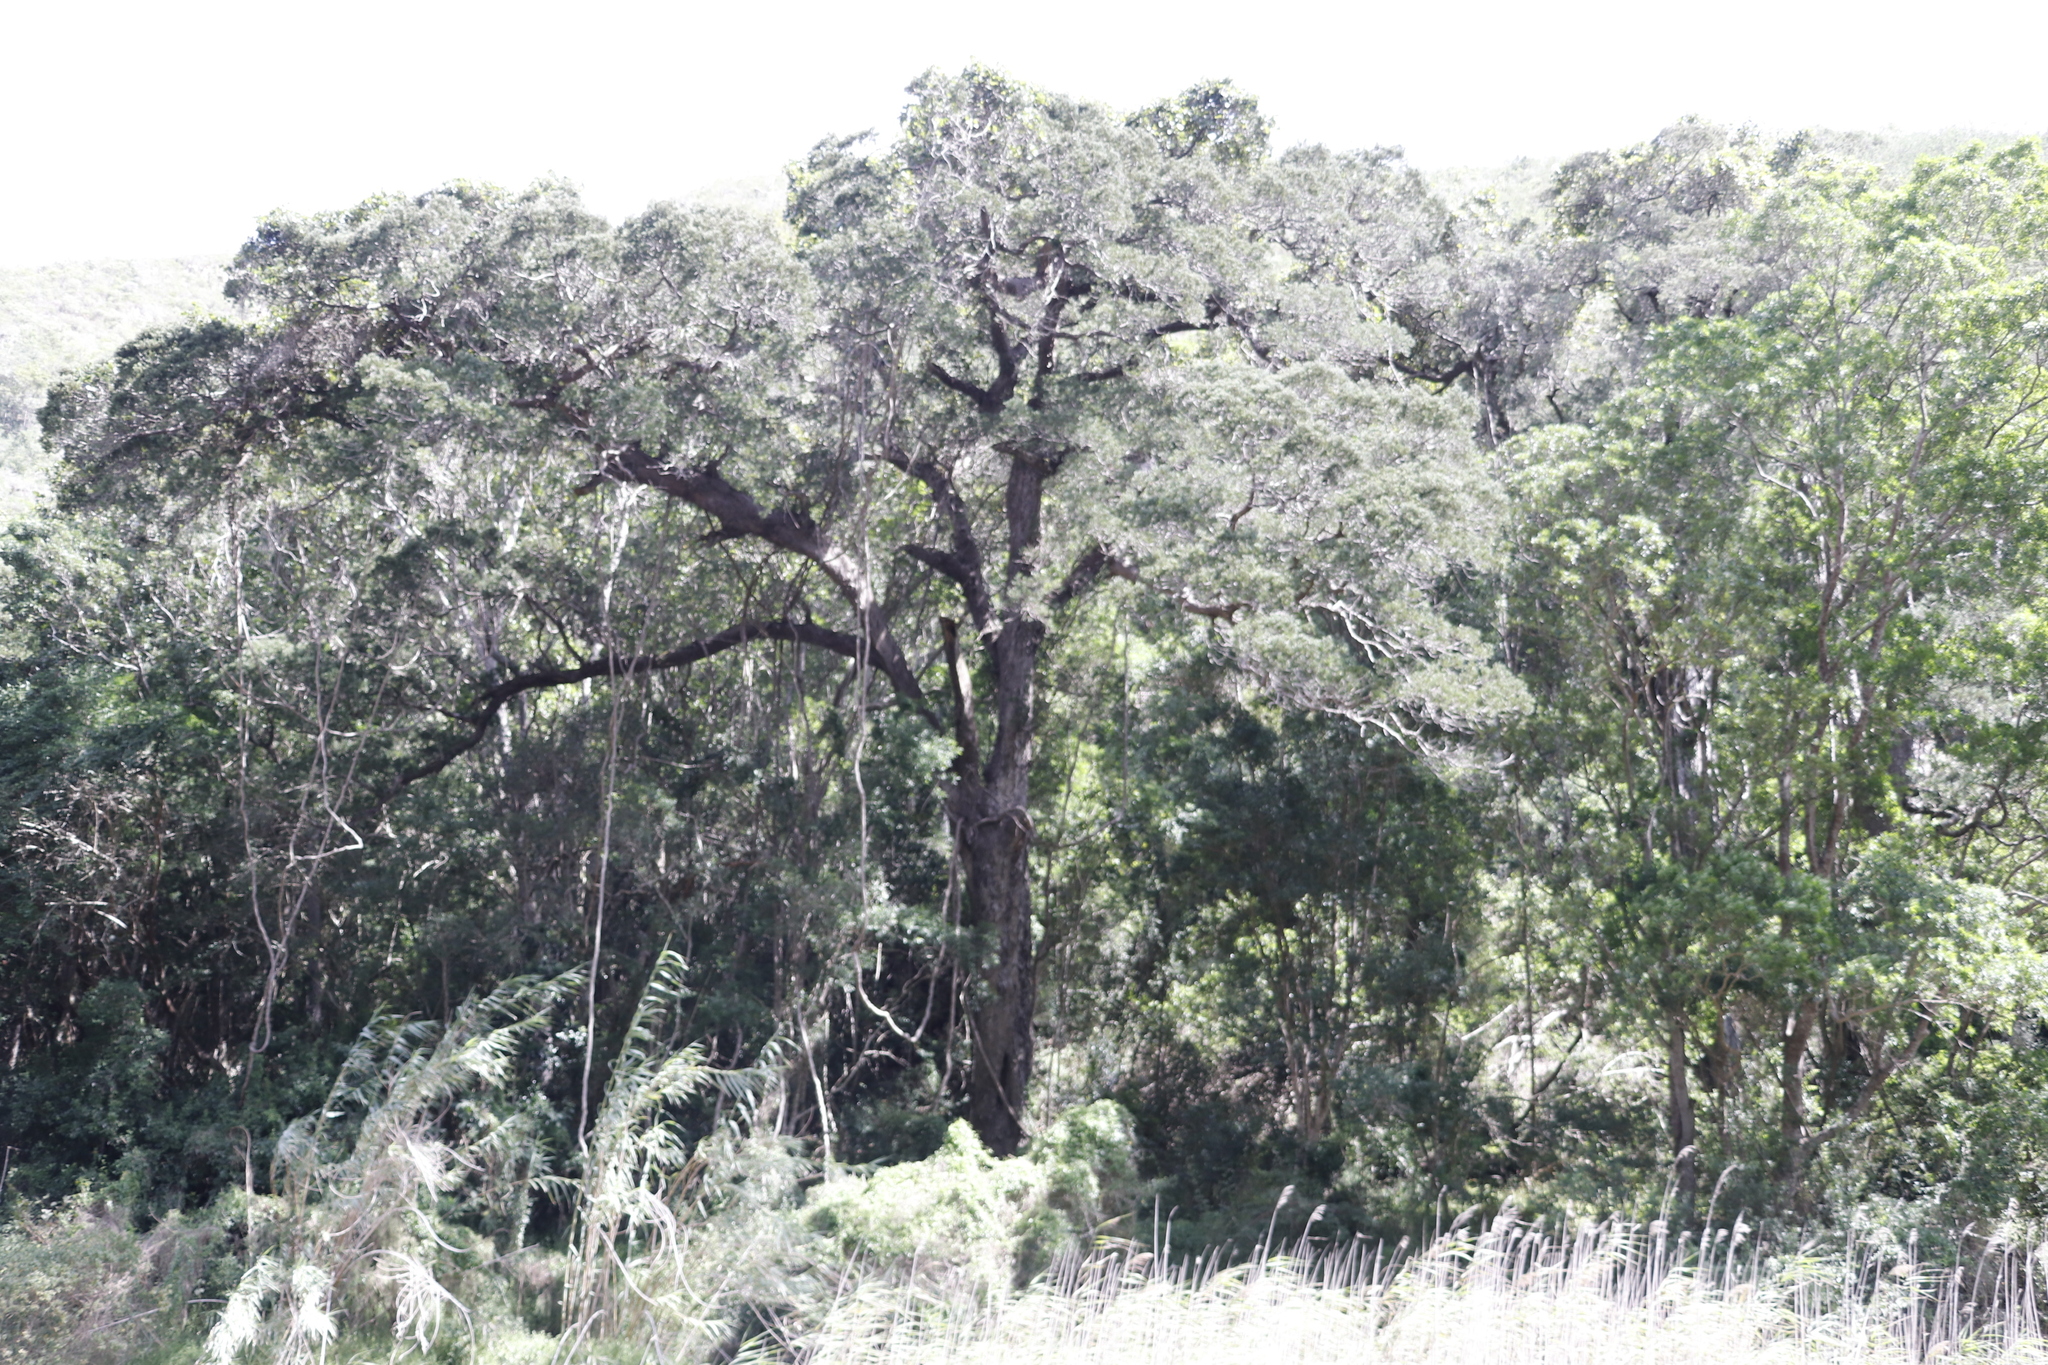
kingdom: Plantae
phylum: Tracheophyta
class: Pinopsida
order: Pinales
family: Podocarpaceae
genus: Afrocarpus
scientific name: Afrocarpus falcatus
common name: Bastard yellowwood
